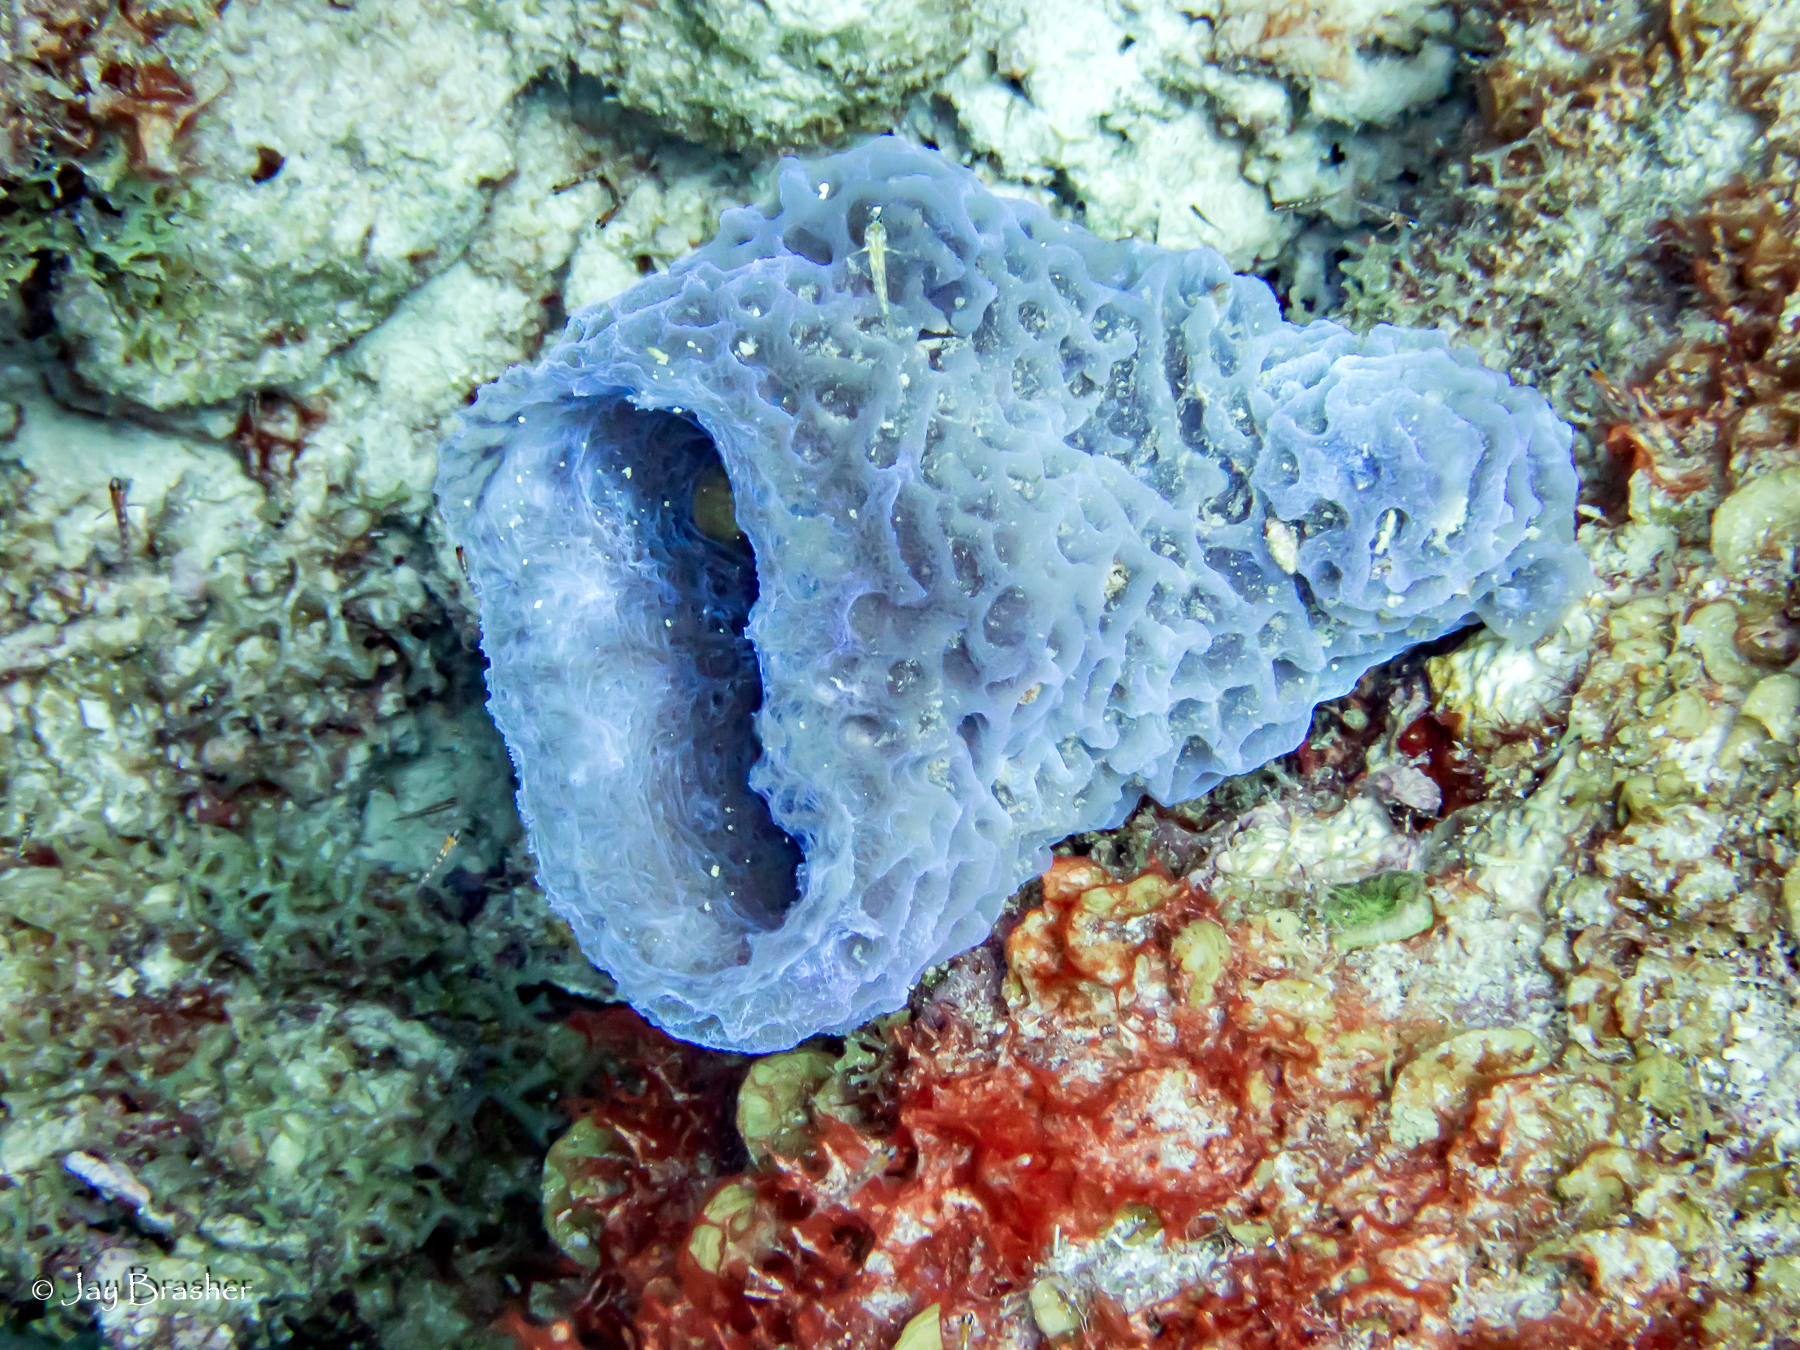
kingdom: Animalia
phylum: Porifera
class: Demospongiae
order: Haplosclerida
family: Callyspongiidae
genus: Callyspongia
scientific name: Callyspongia plicifera
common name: Azure vase sponge
